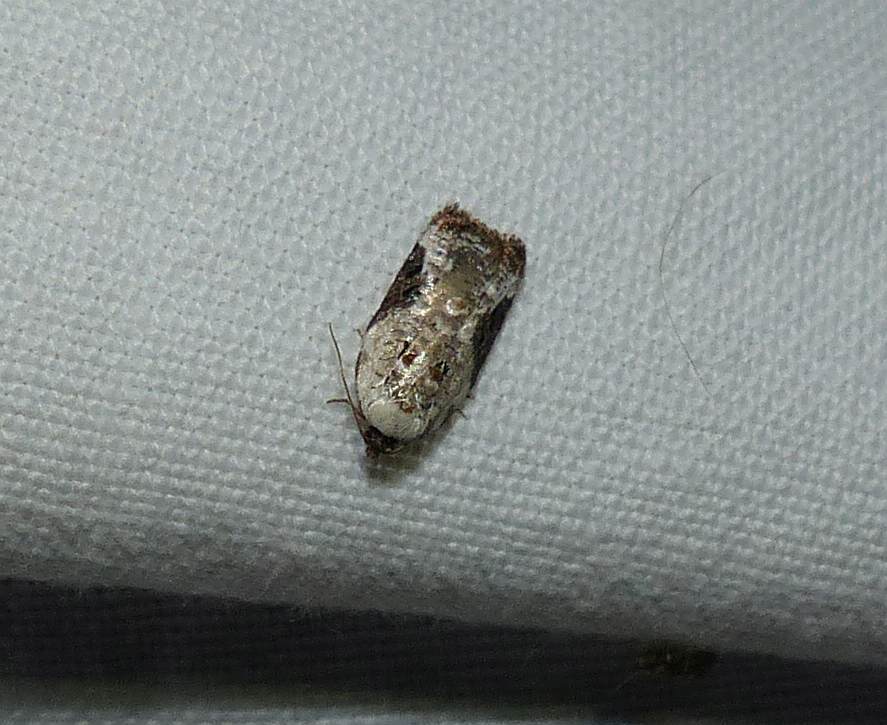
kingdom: Animalia
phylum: Arthropoda
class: Insecta
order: Lepidoptera
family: Tortricidae
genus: Acleris
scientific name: Acleris nivisellana
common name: Snowy-shouldered acleris moth
